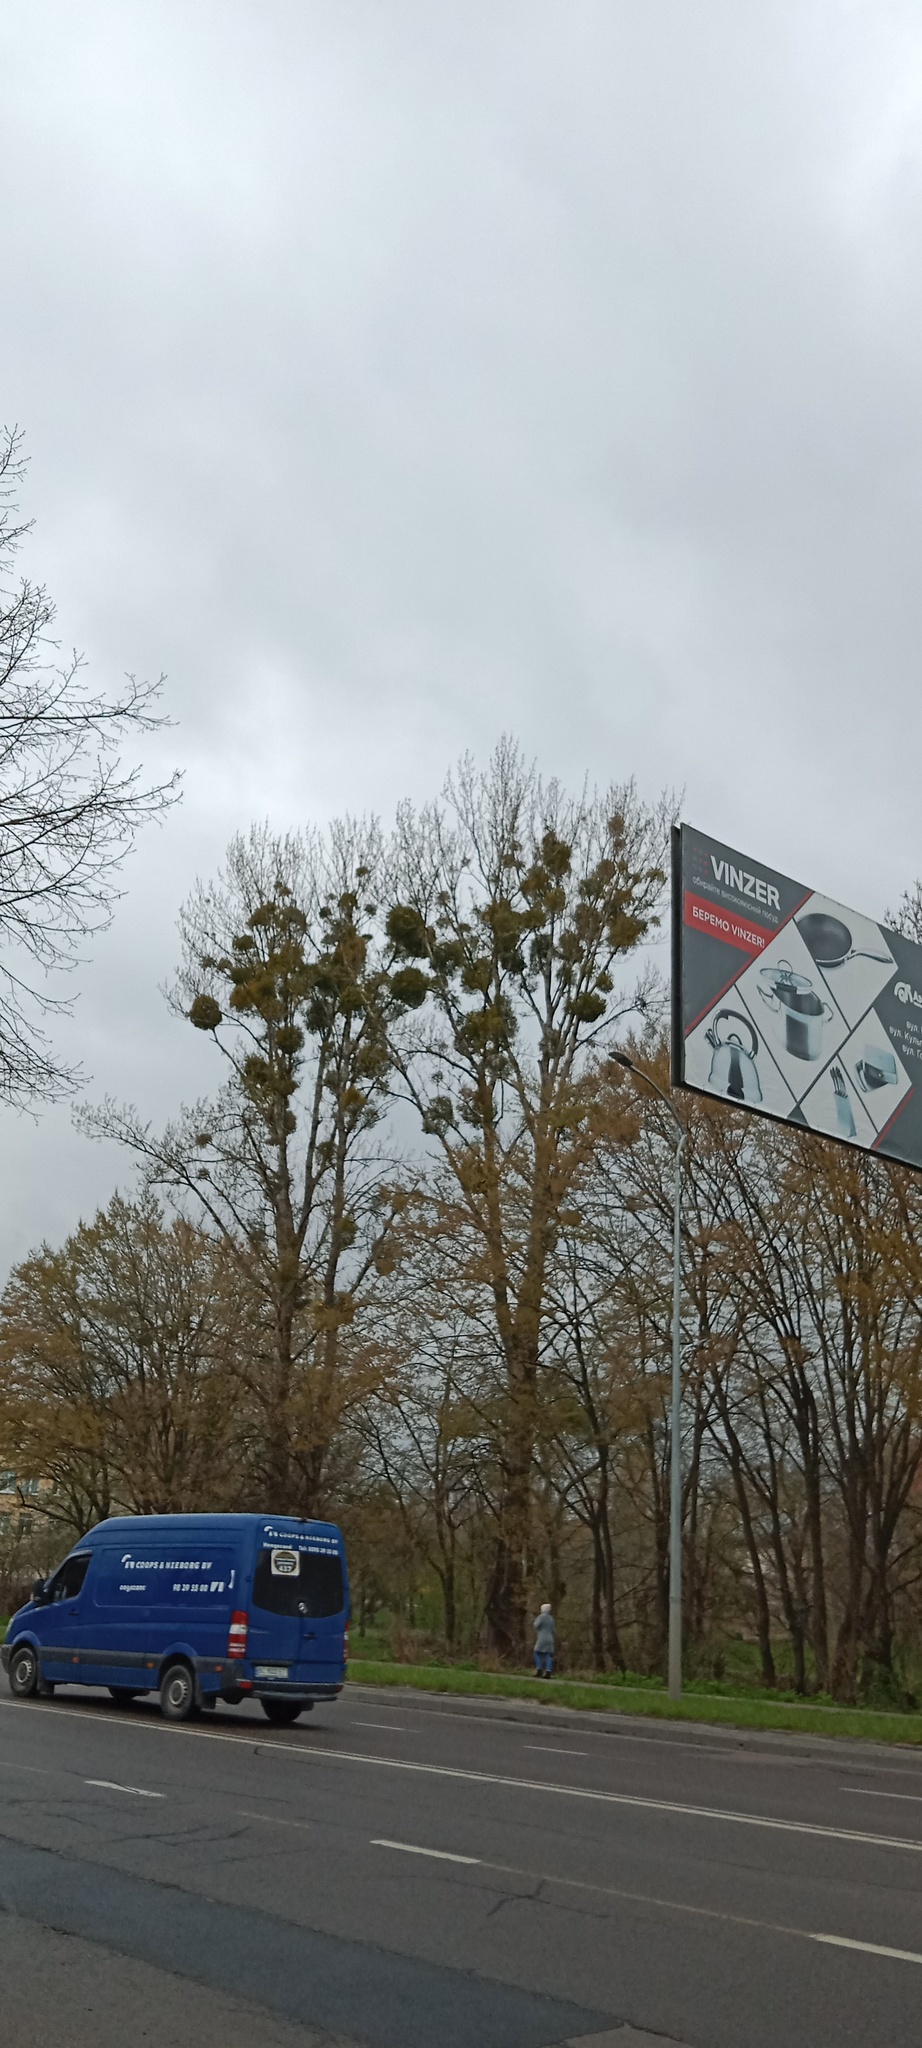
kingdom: Plantae
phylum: Tracheophyta
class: Magnoliopsida
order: Santalales
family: Viscaceae
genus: Viscum
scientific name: Viscum album
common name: Mistletoe
